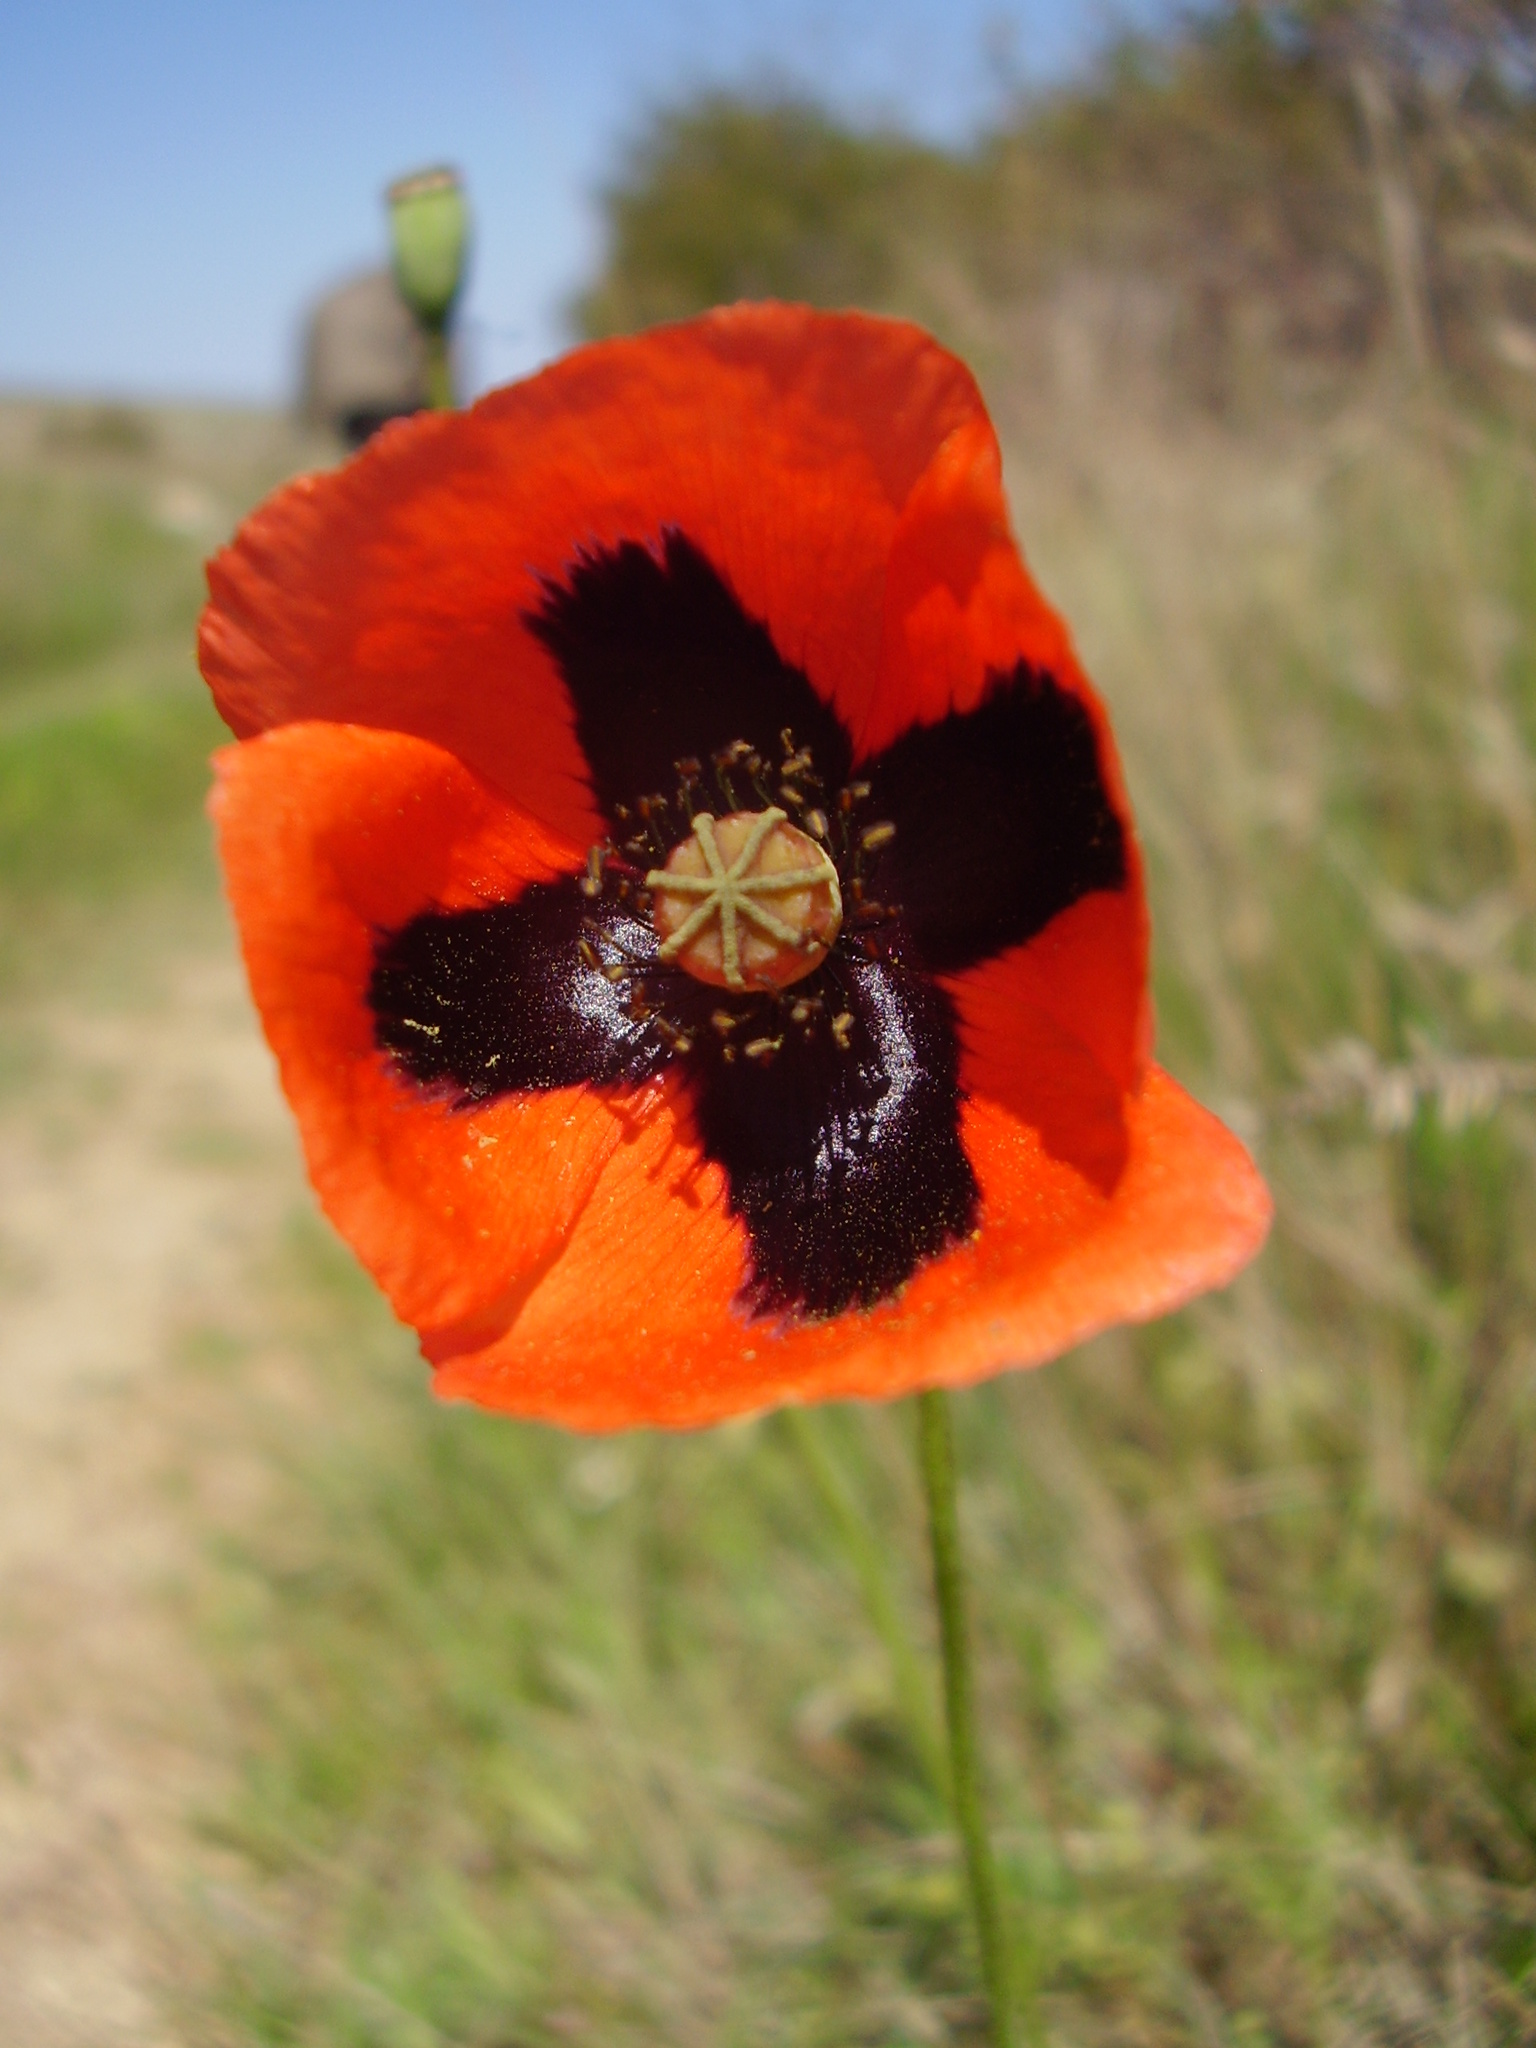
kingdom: Plantae
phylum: Tracheophyta
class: Magnoliopsida
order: Ranunculales
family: Papaveraceae
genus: Papaver
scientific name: Papaver dubium
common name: Long-headed poppy
